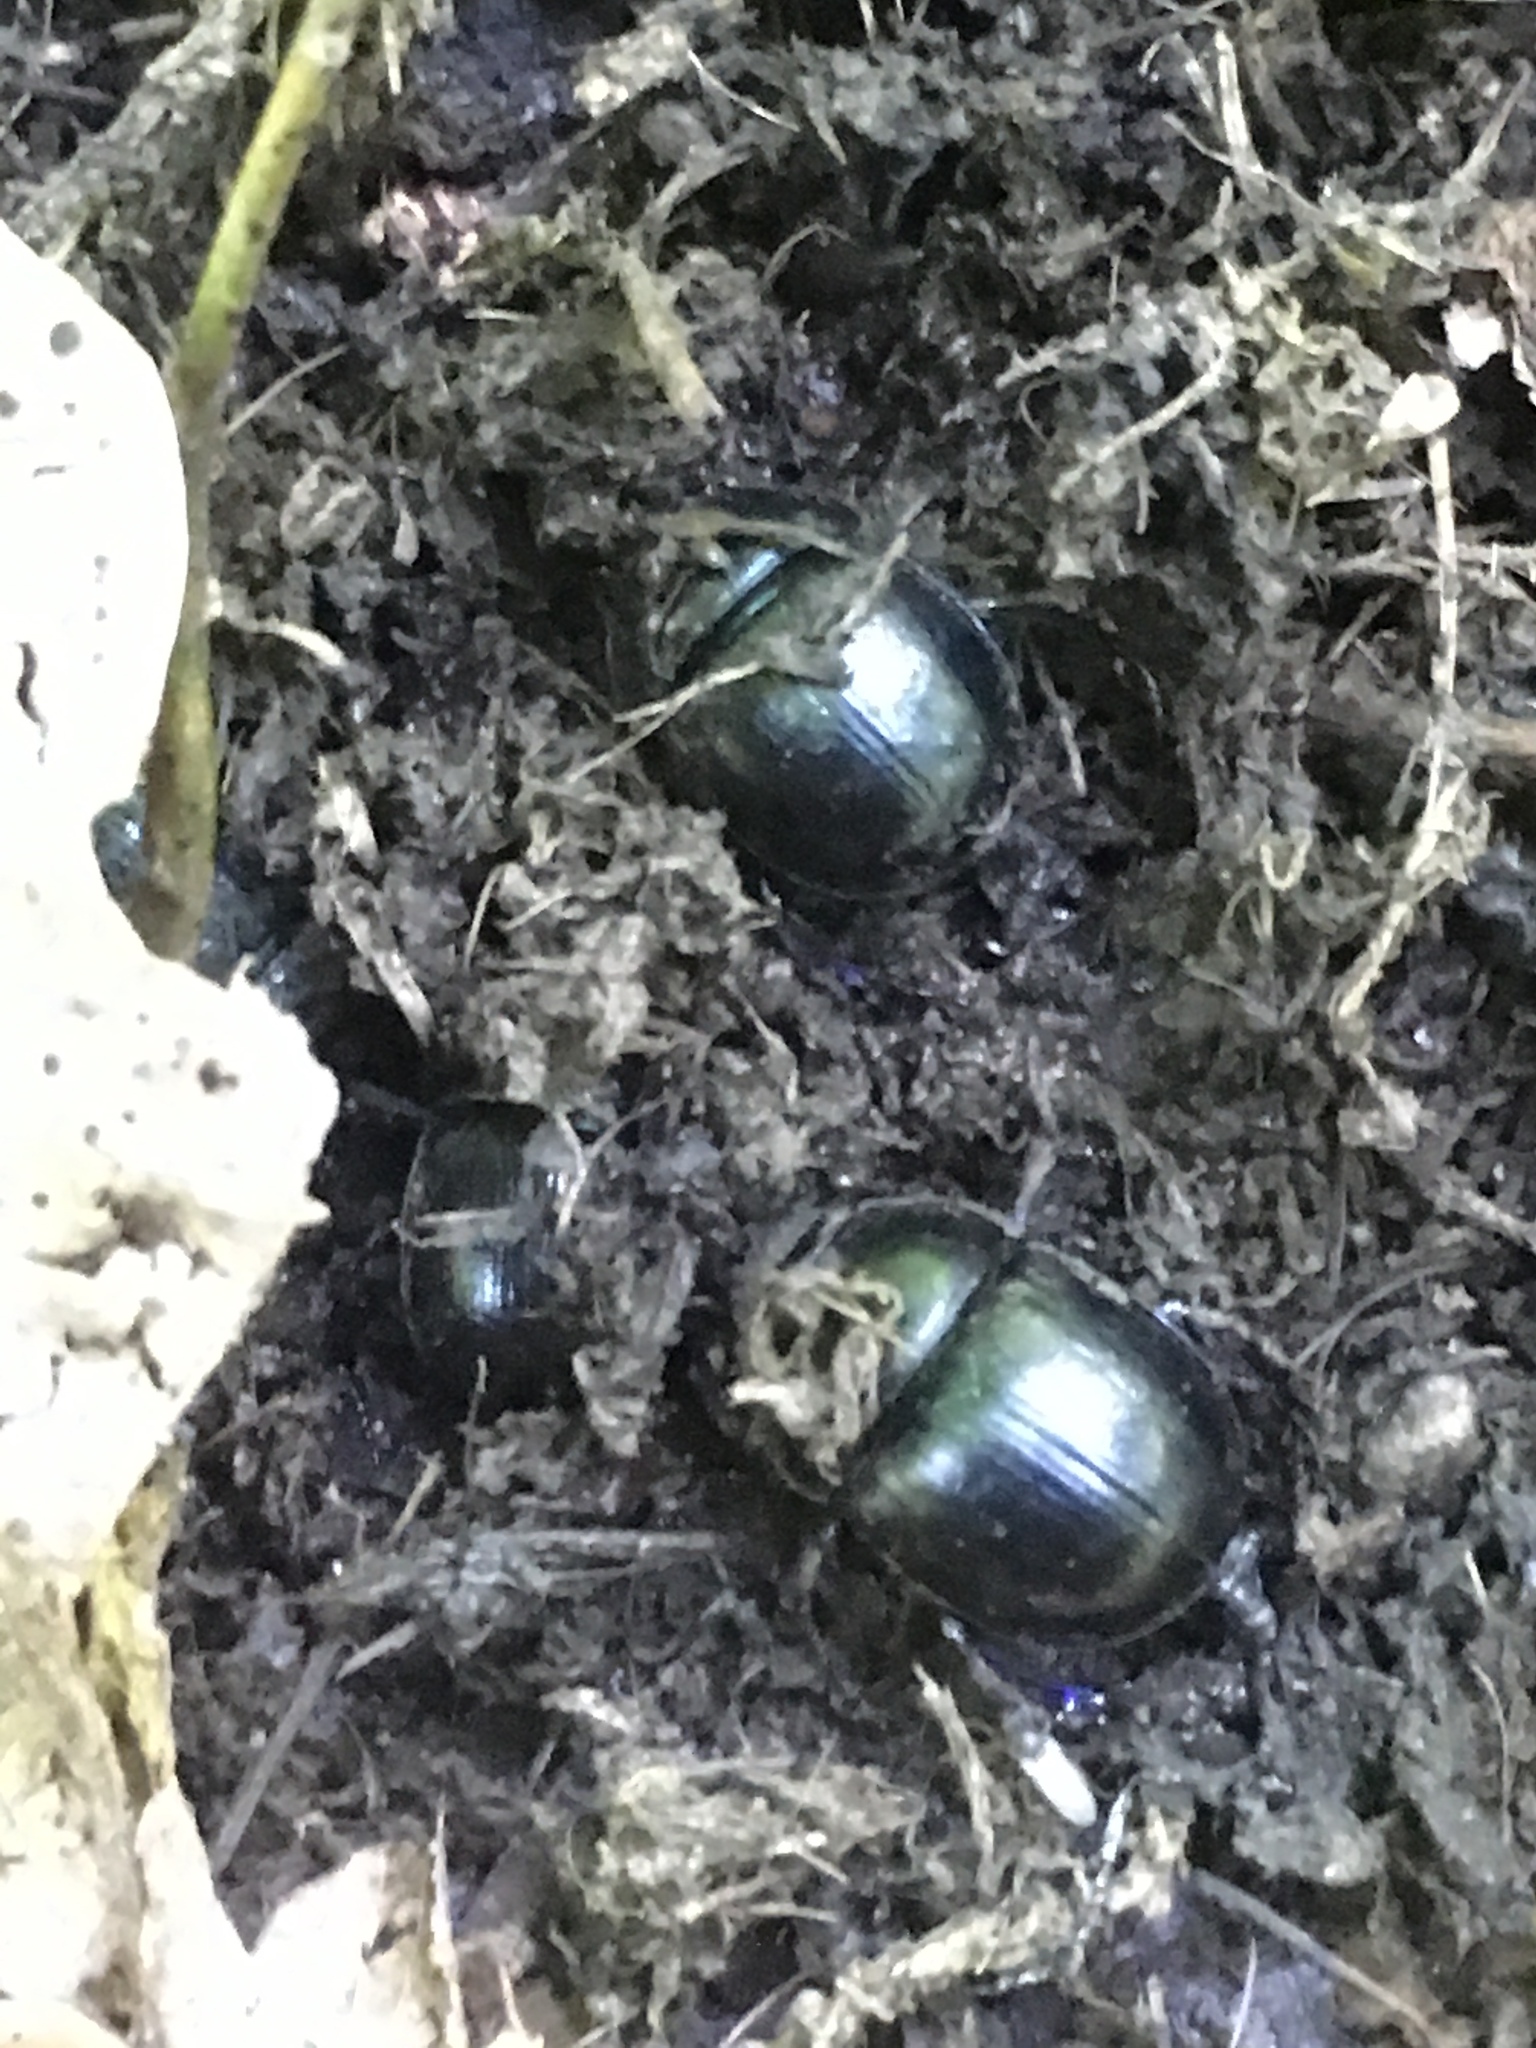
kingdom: Animalia
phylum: Arthropoda
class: Insecta
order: Coleoptera
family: Geotrupidae
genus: Anoplotrupes
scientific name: Anoplotrupes stercorosus
